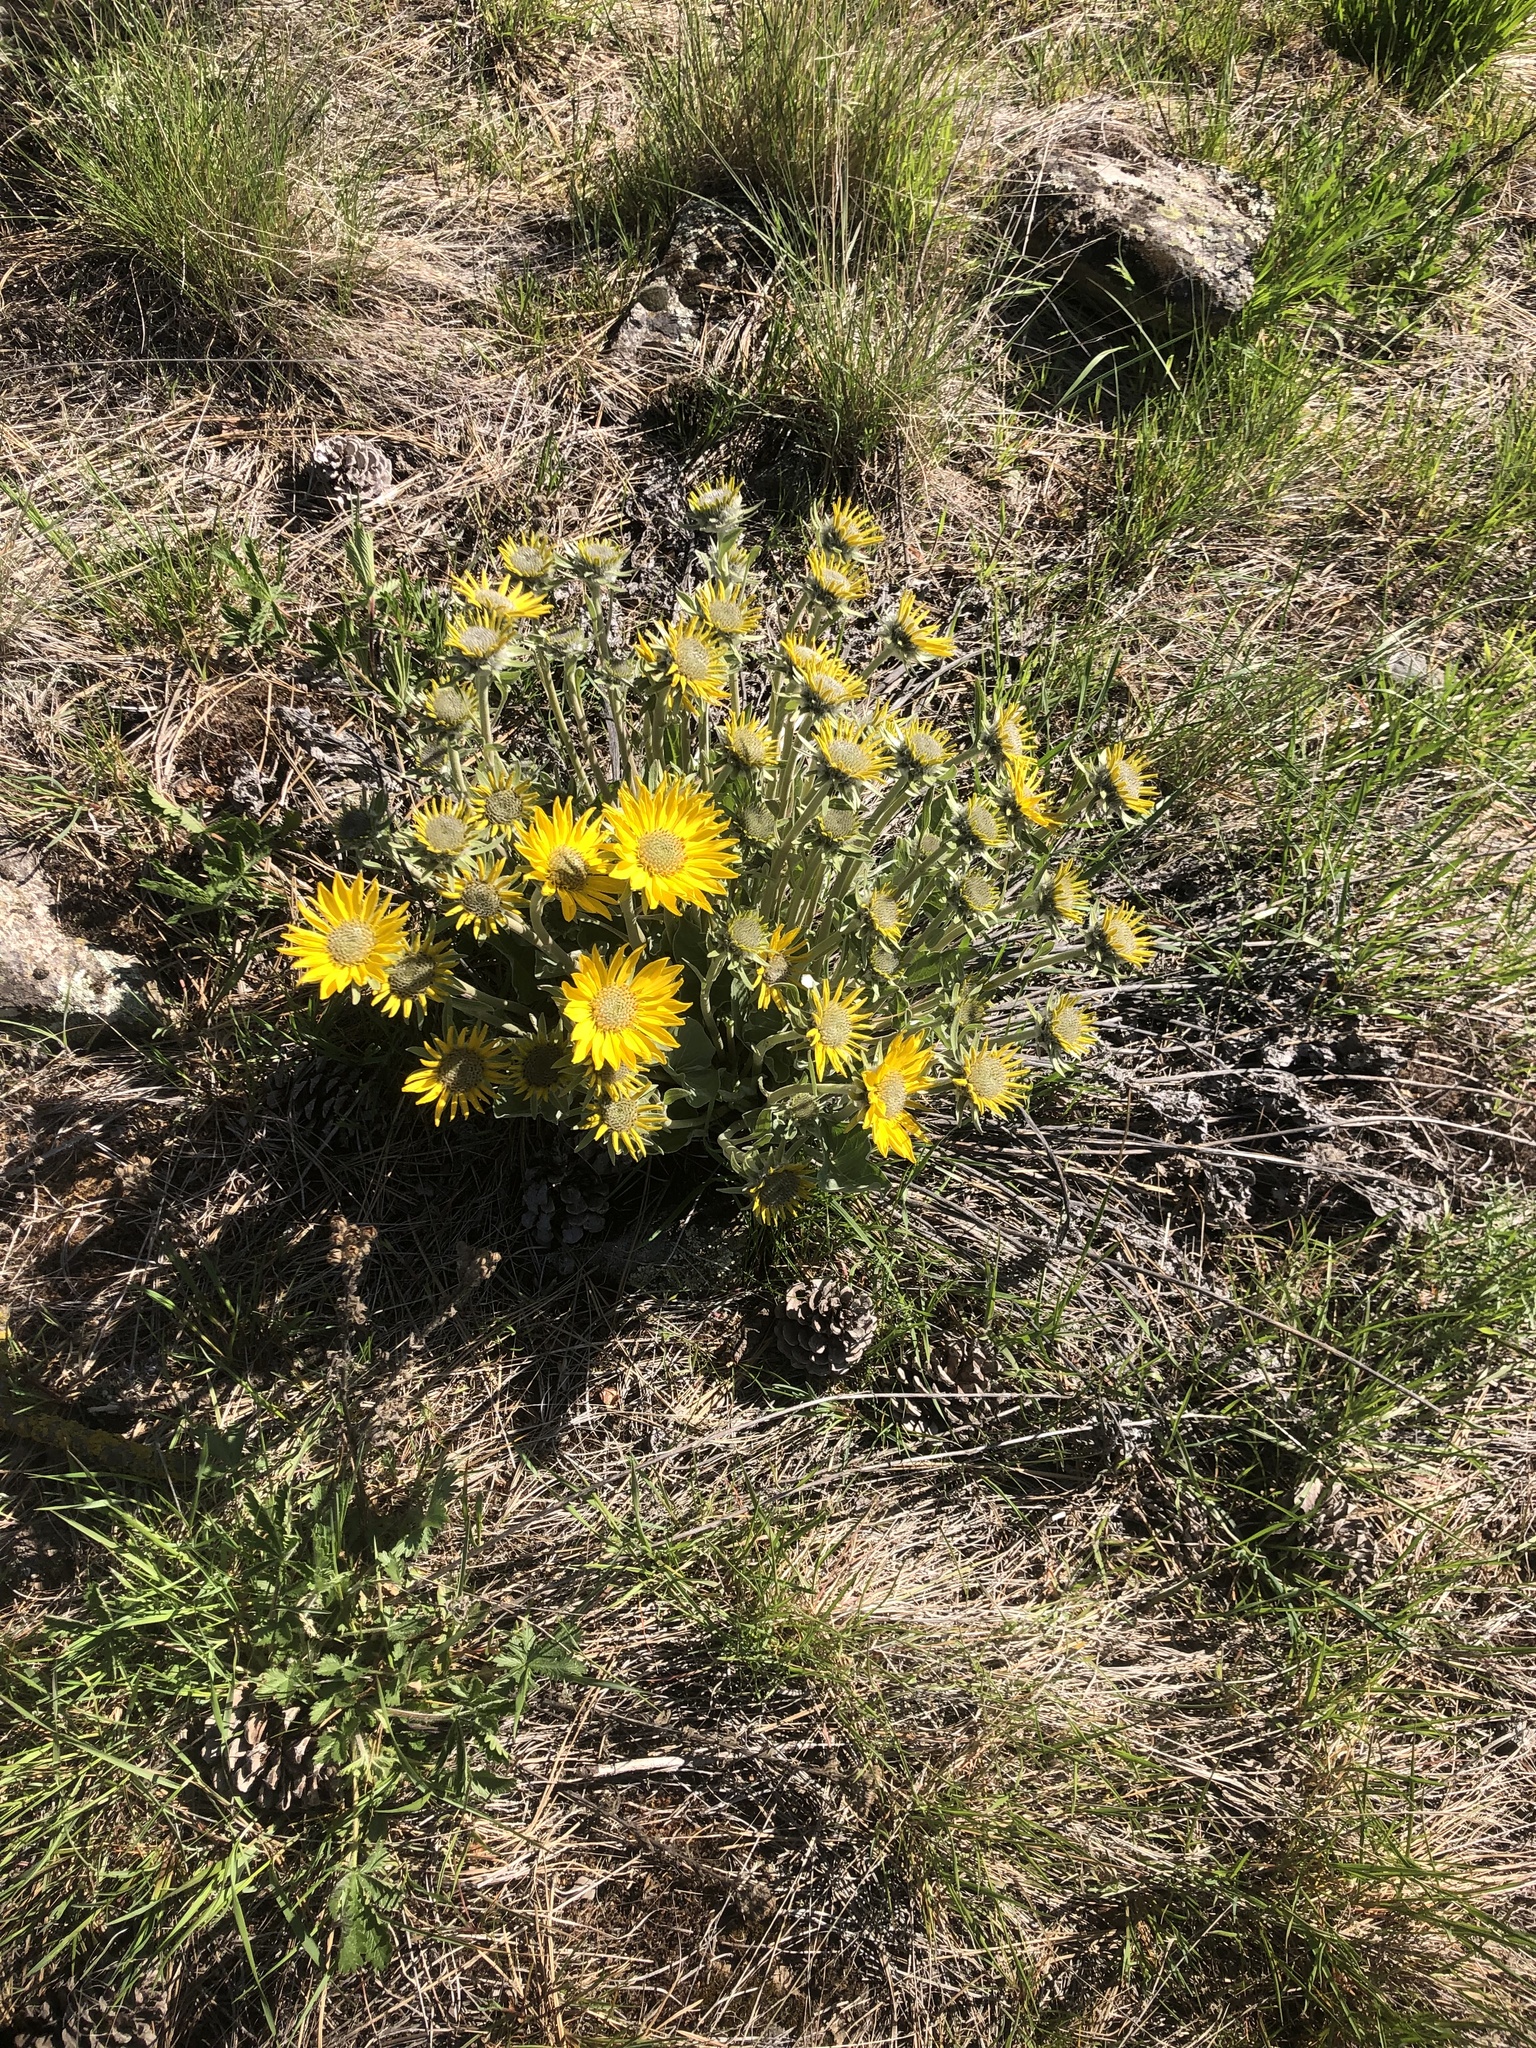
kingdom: Plantae
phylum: Tracheophyta
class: Magnoliopsida
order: Asterales
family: Asteraceae
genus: Wyethia
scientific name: Wyethia sagittata
